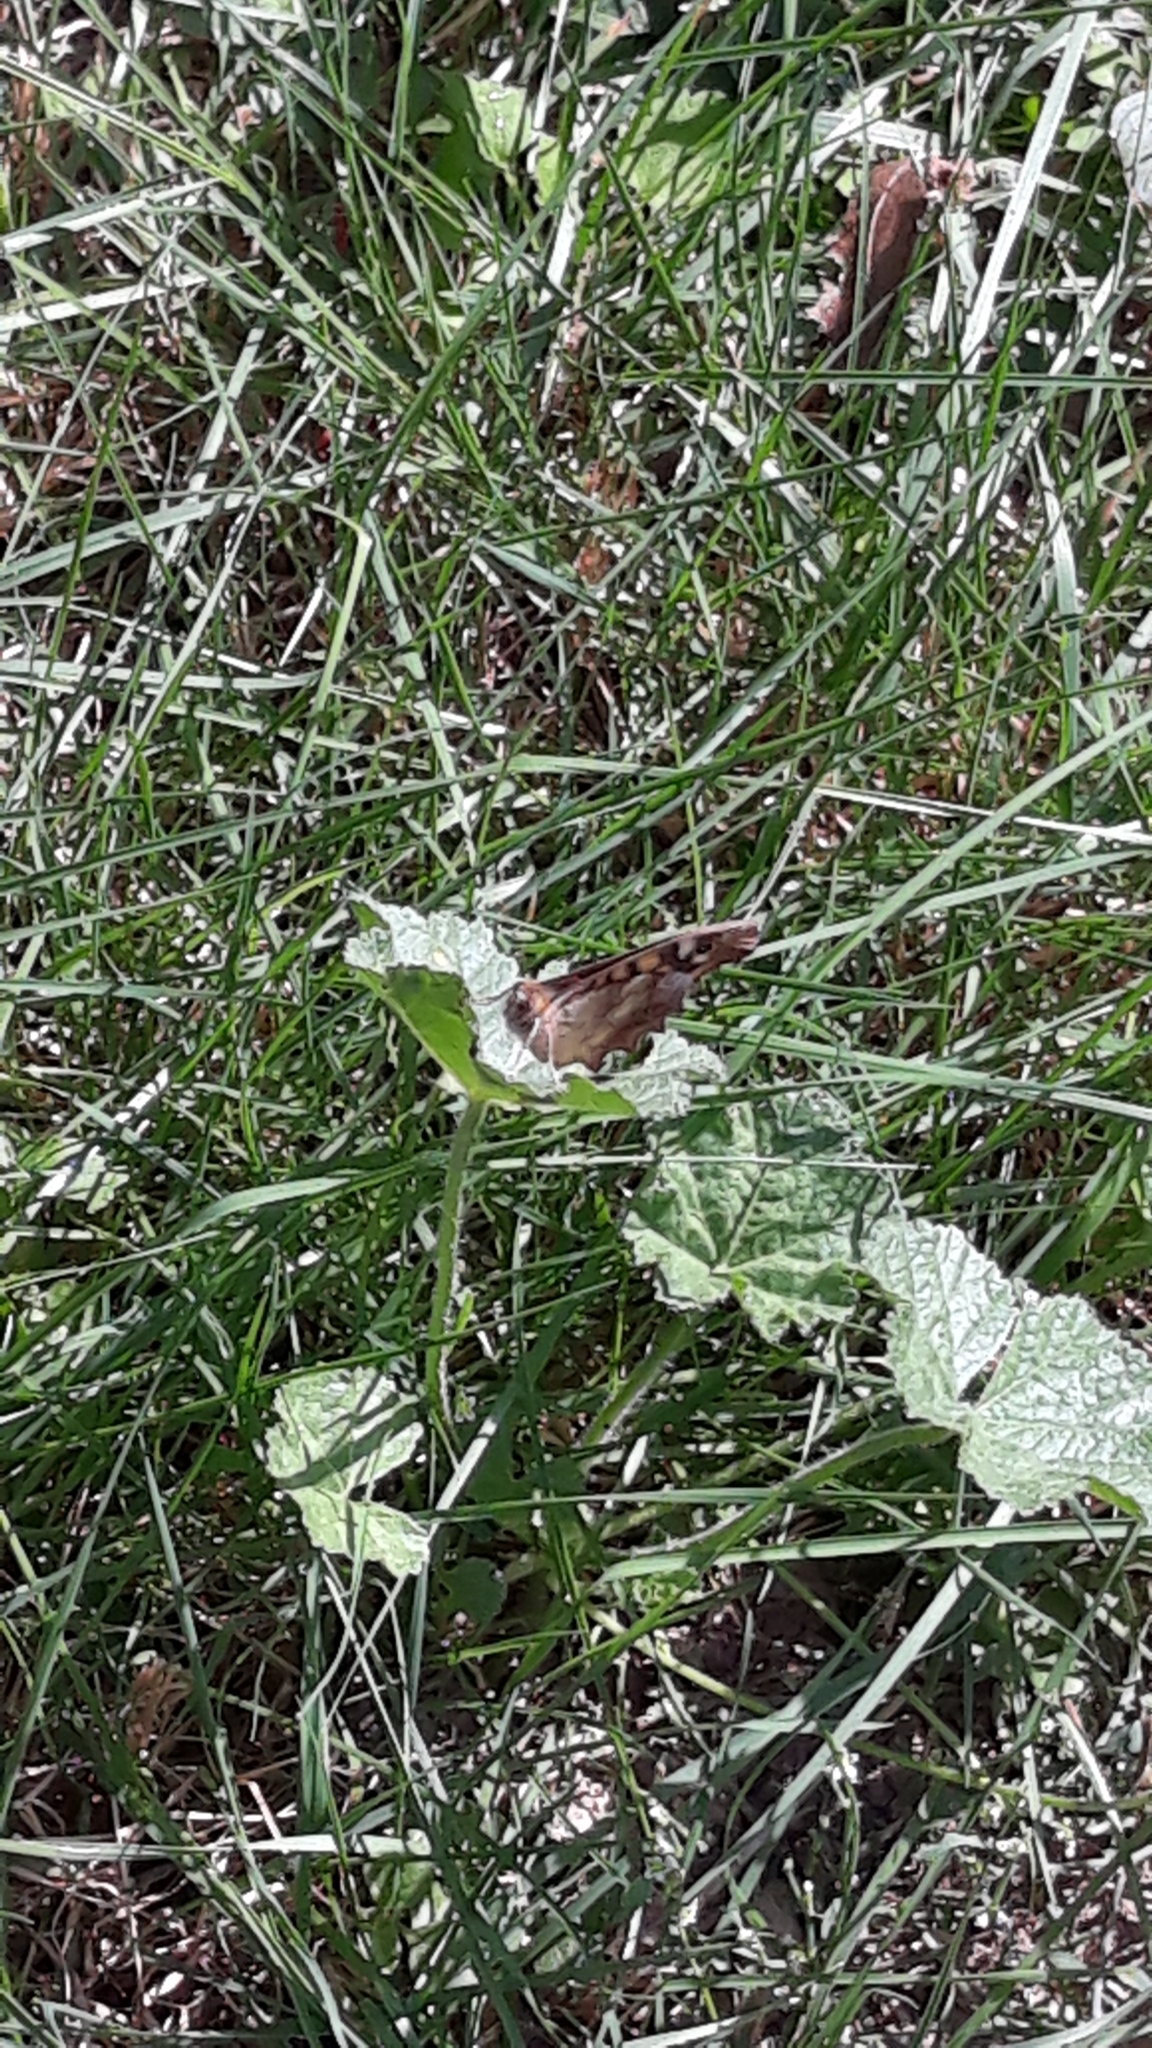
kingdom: Animalia
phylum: Arthropoda
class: Insecta
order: Lepidoptera
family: Nymphalidae
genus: Pararge
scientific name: Pararge aegeria
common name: Speckled wood
